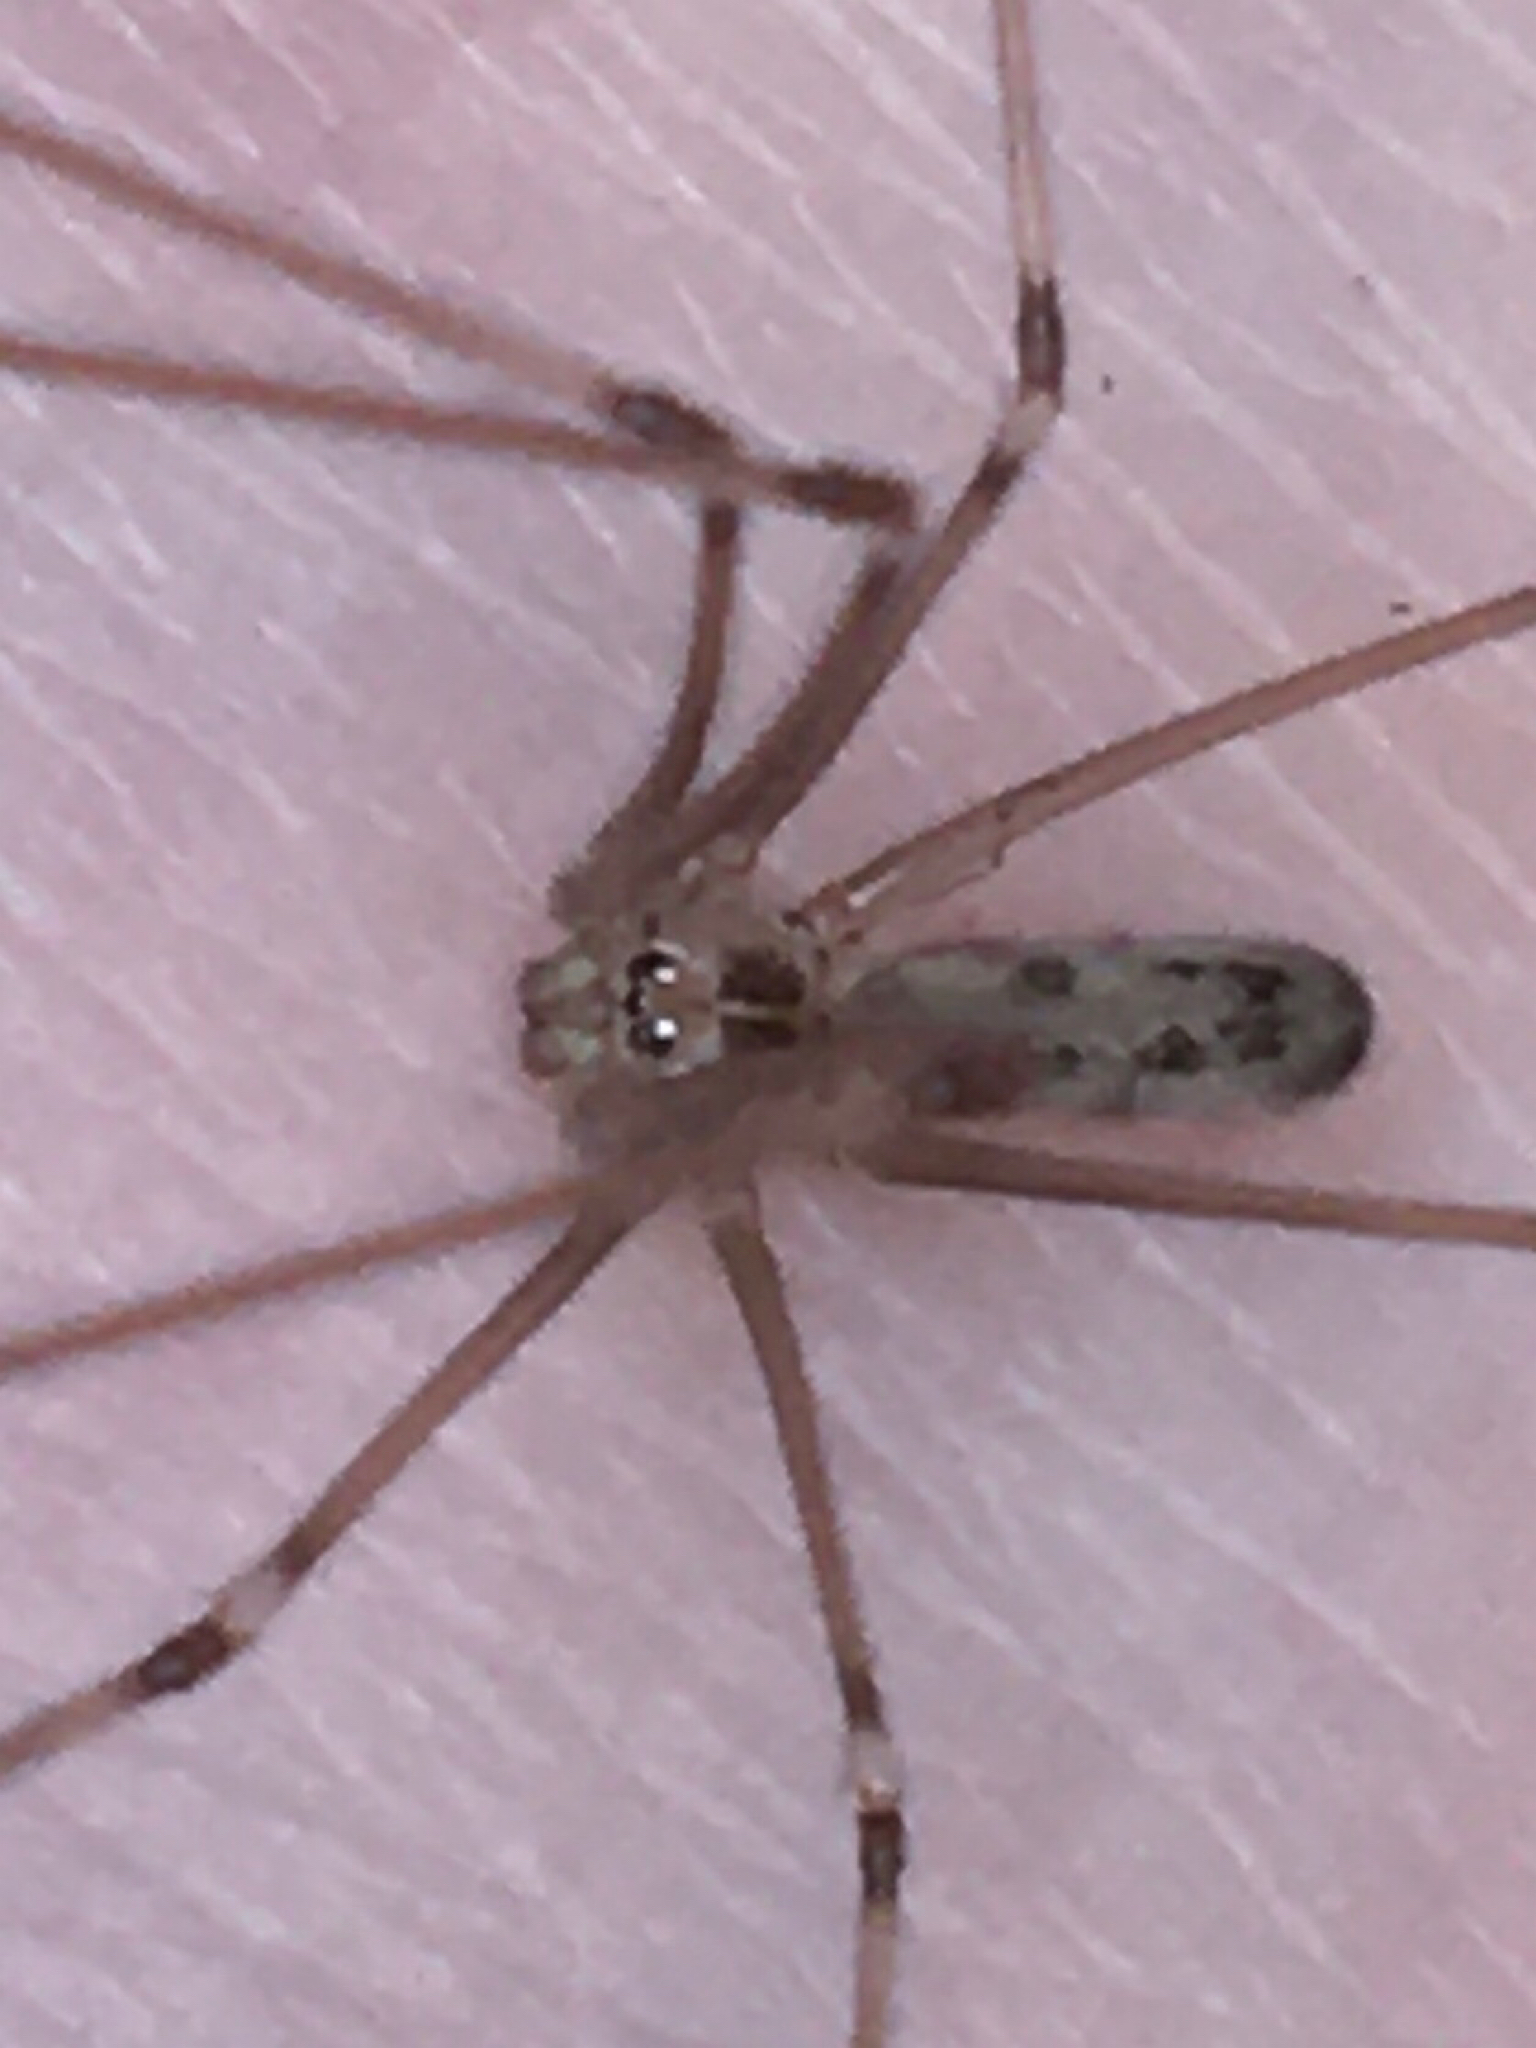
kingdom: Animalia
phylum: Arthropoda
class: Arachnida
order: Araneae
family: Pholcidae
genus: Pholcus
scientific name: Pholcus phalangioides
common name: Longbodied cellar spider
